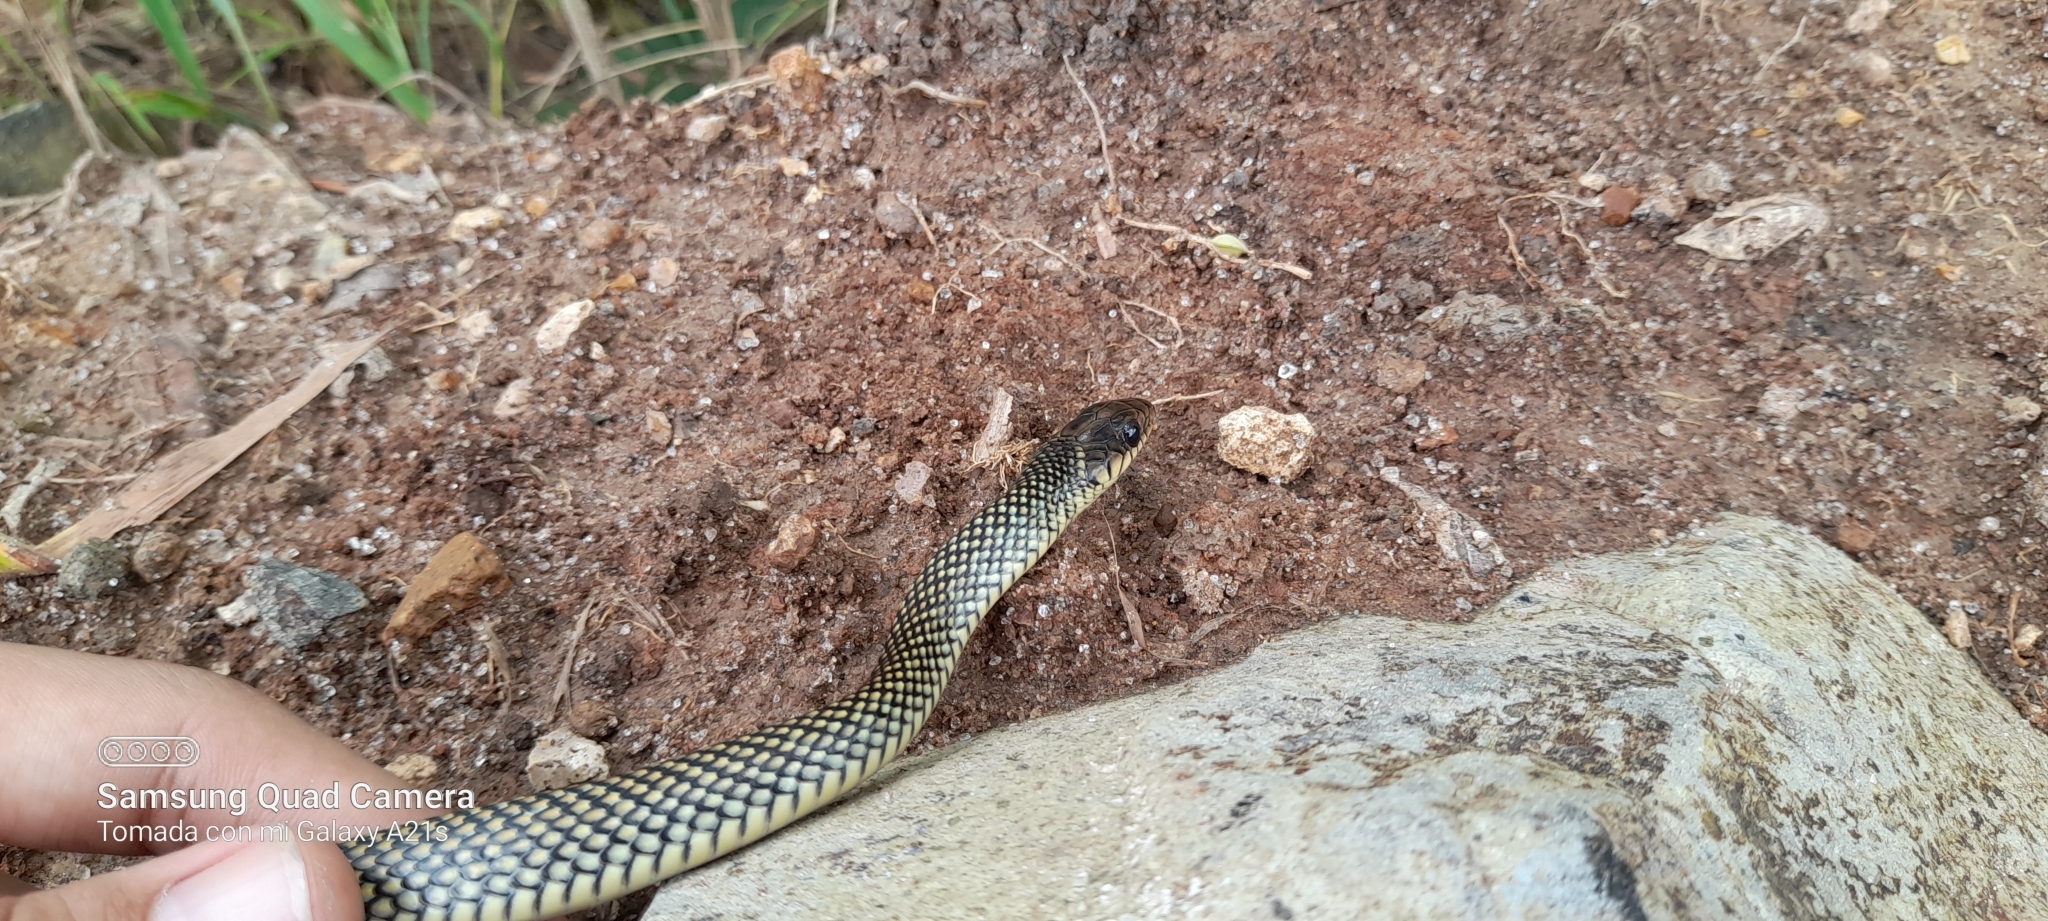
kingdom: Animalia
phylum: Chordata
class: Squamata
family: Colubridae
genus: Drymobius
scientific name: Drymobius margaritiferus
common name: Central american speckled racer
